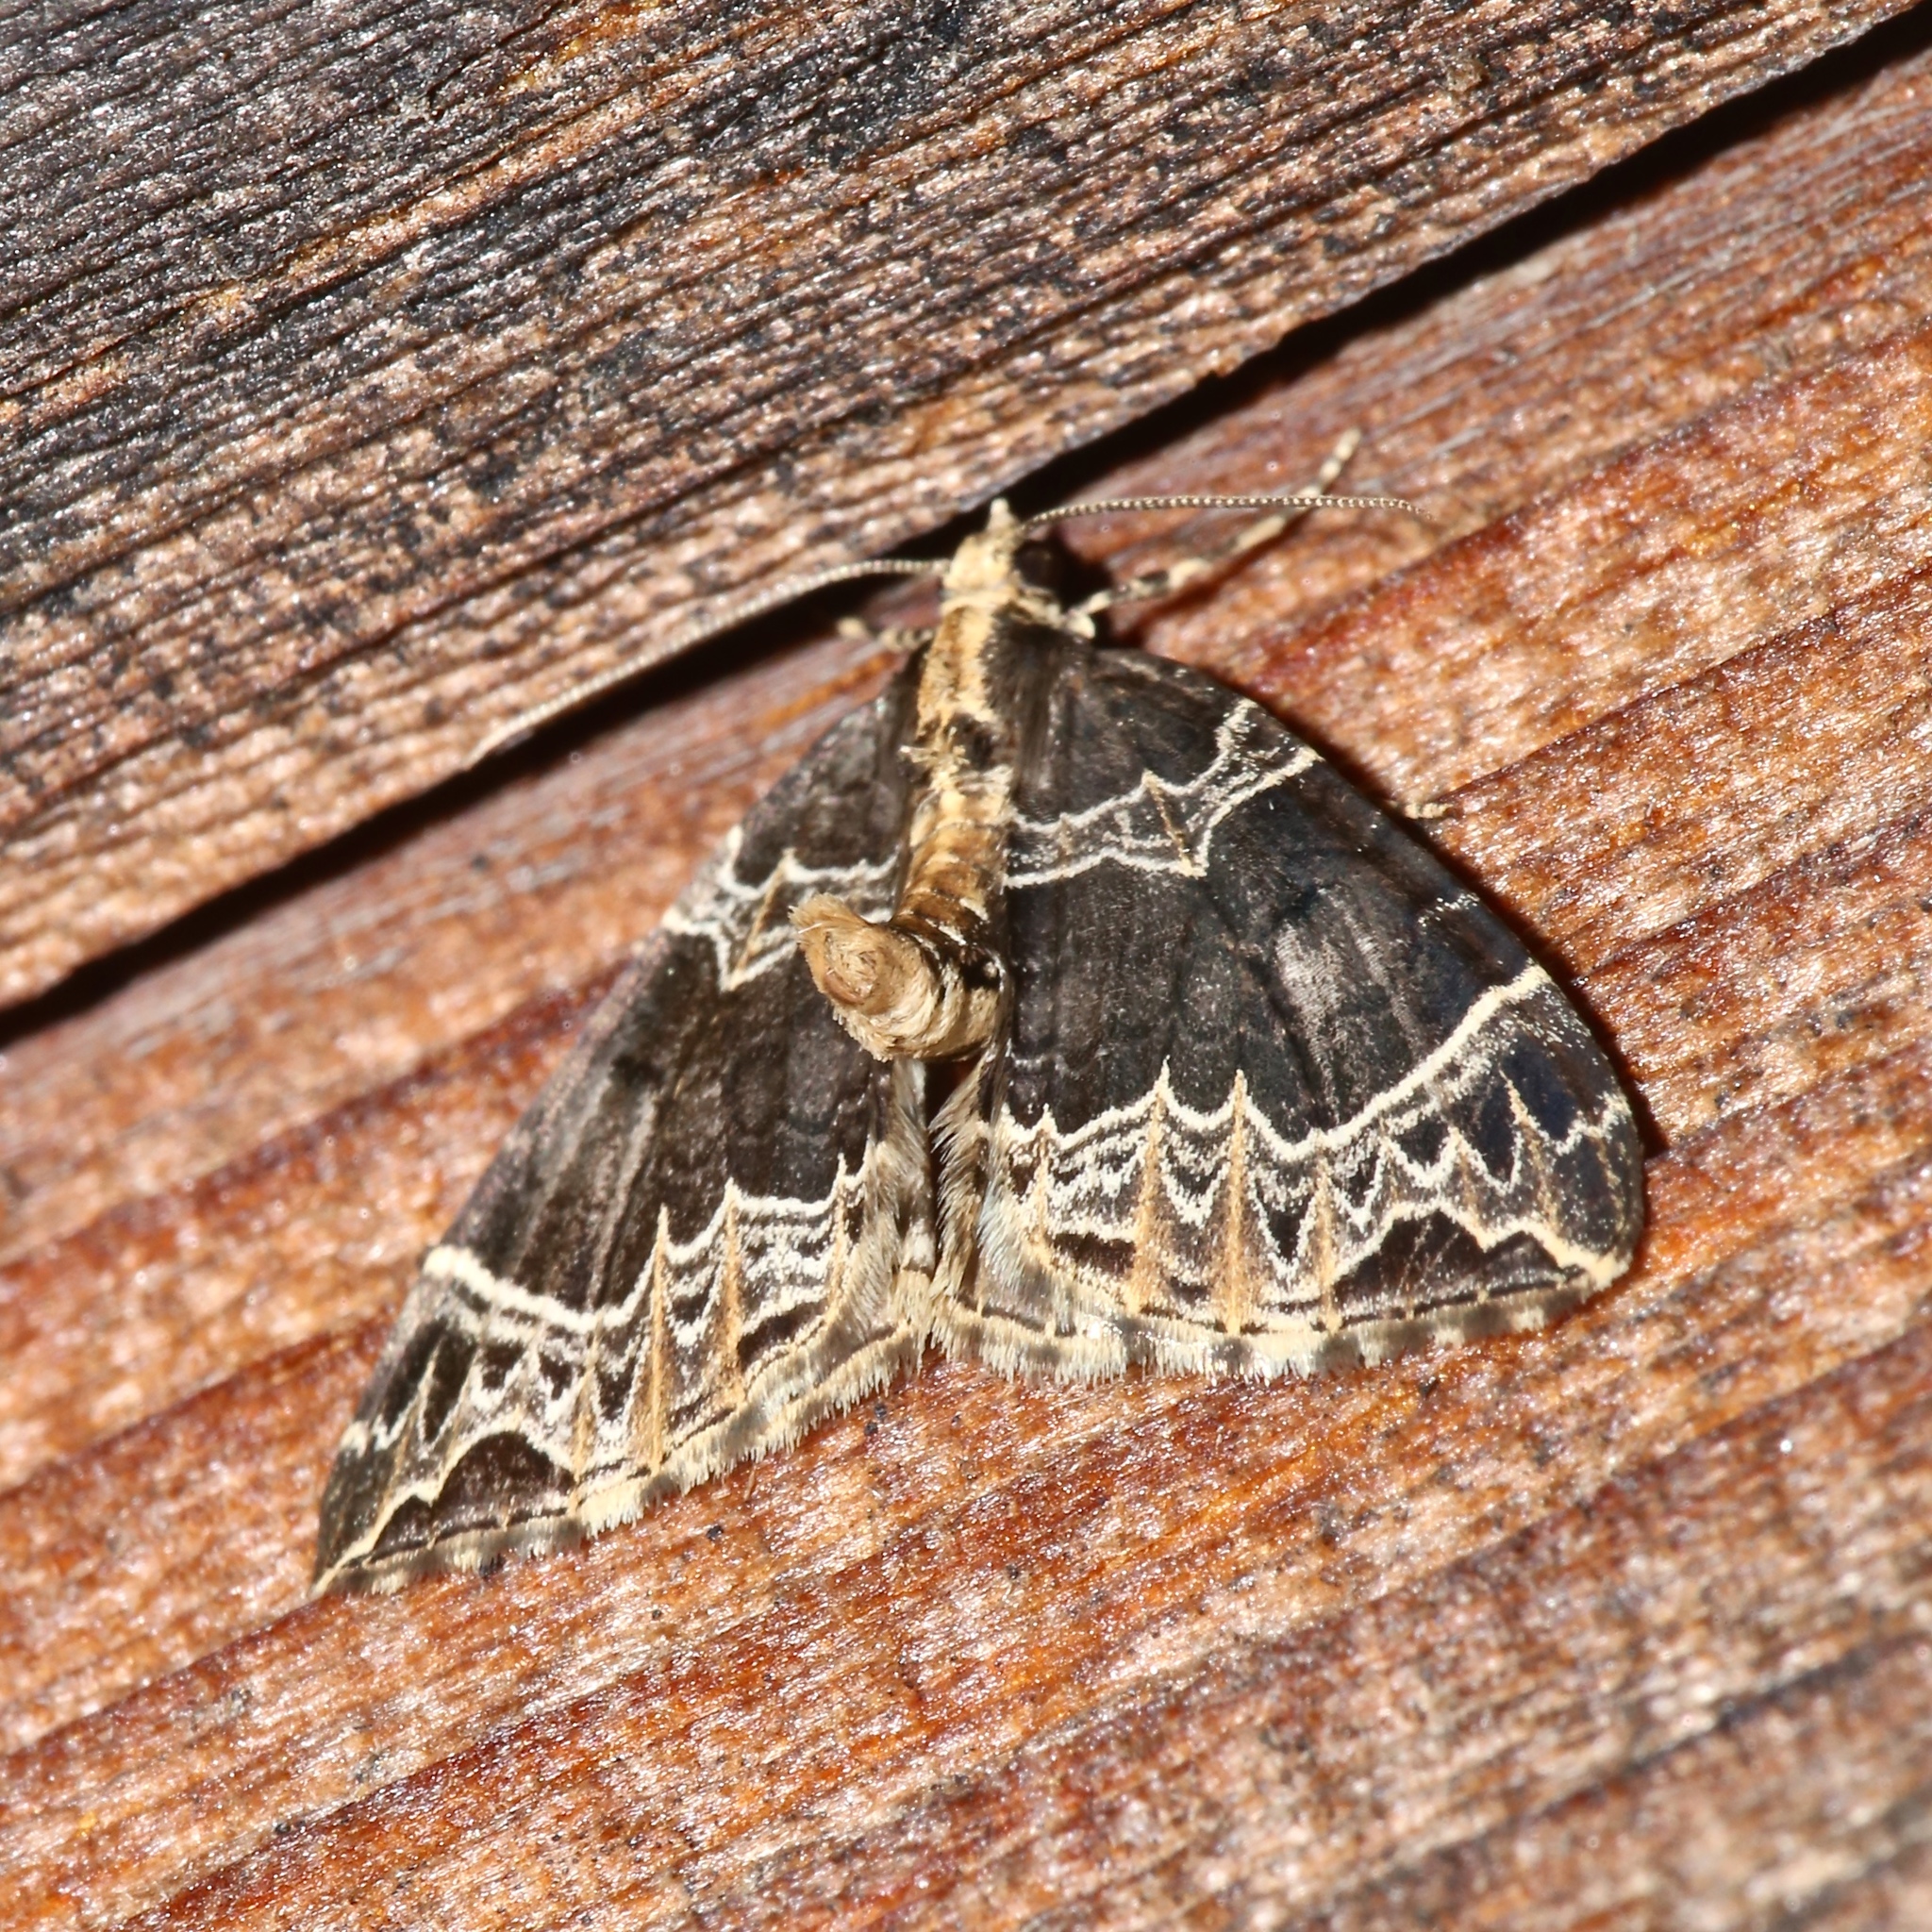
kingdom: Animalia
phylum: Arthropoda
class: Insecta
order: Lepidoptera
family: Geometridae
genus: Ecliptopera
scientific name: Ecliptopera silaceata
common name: Small phoenix
